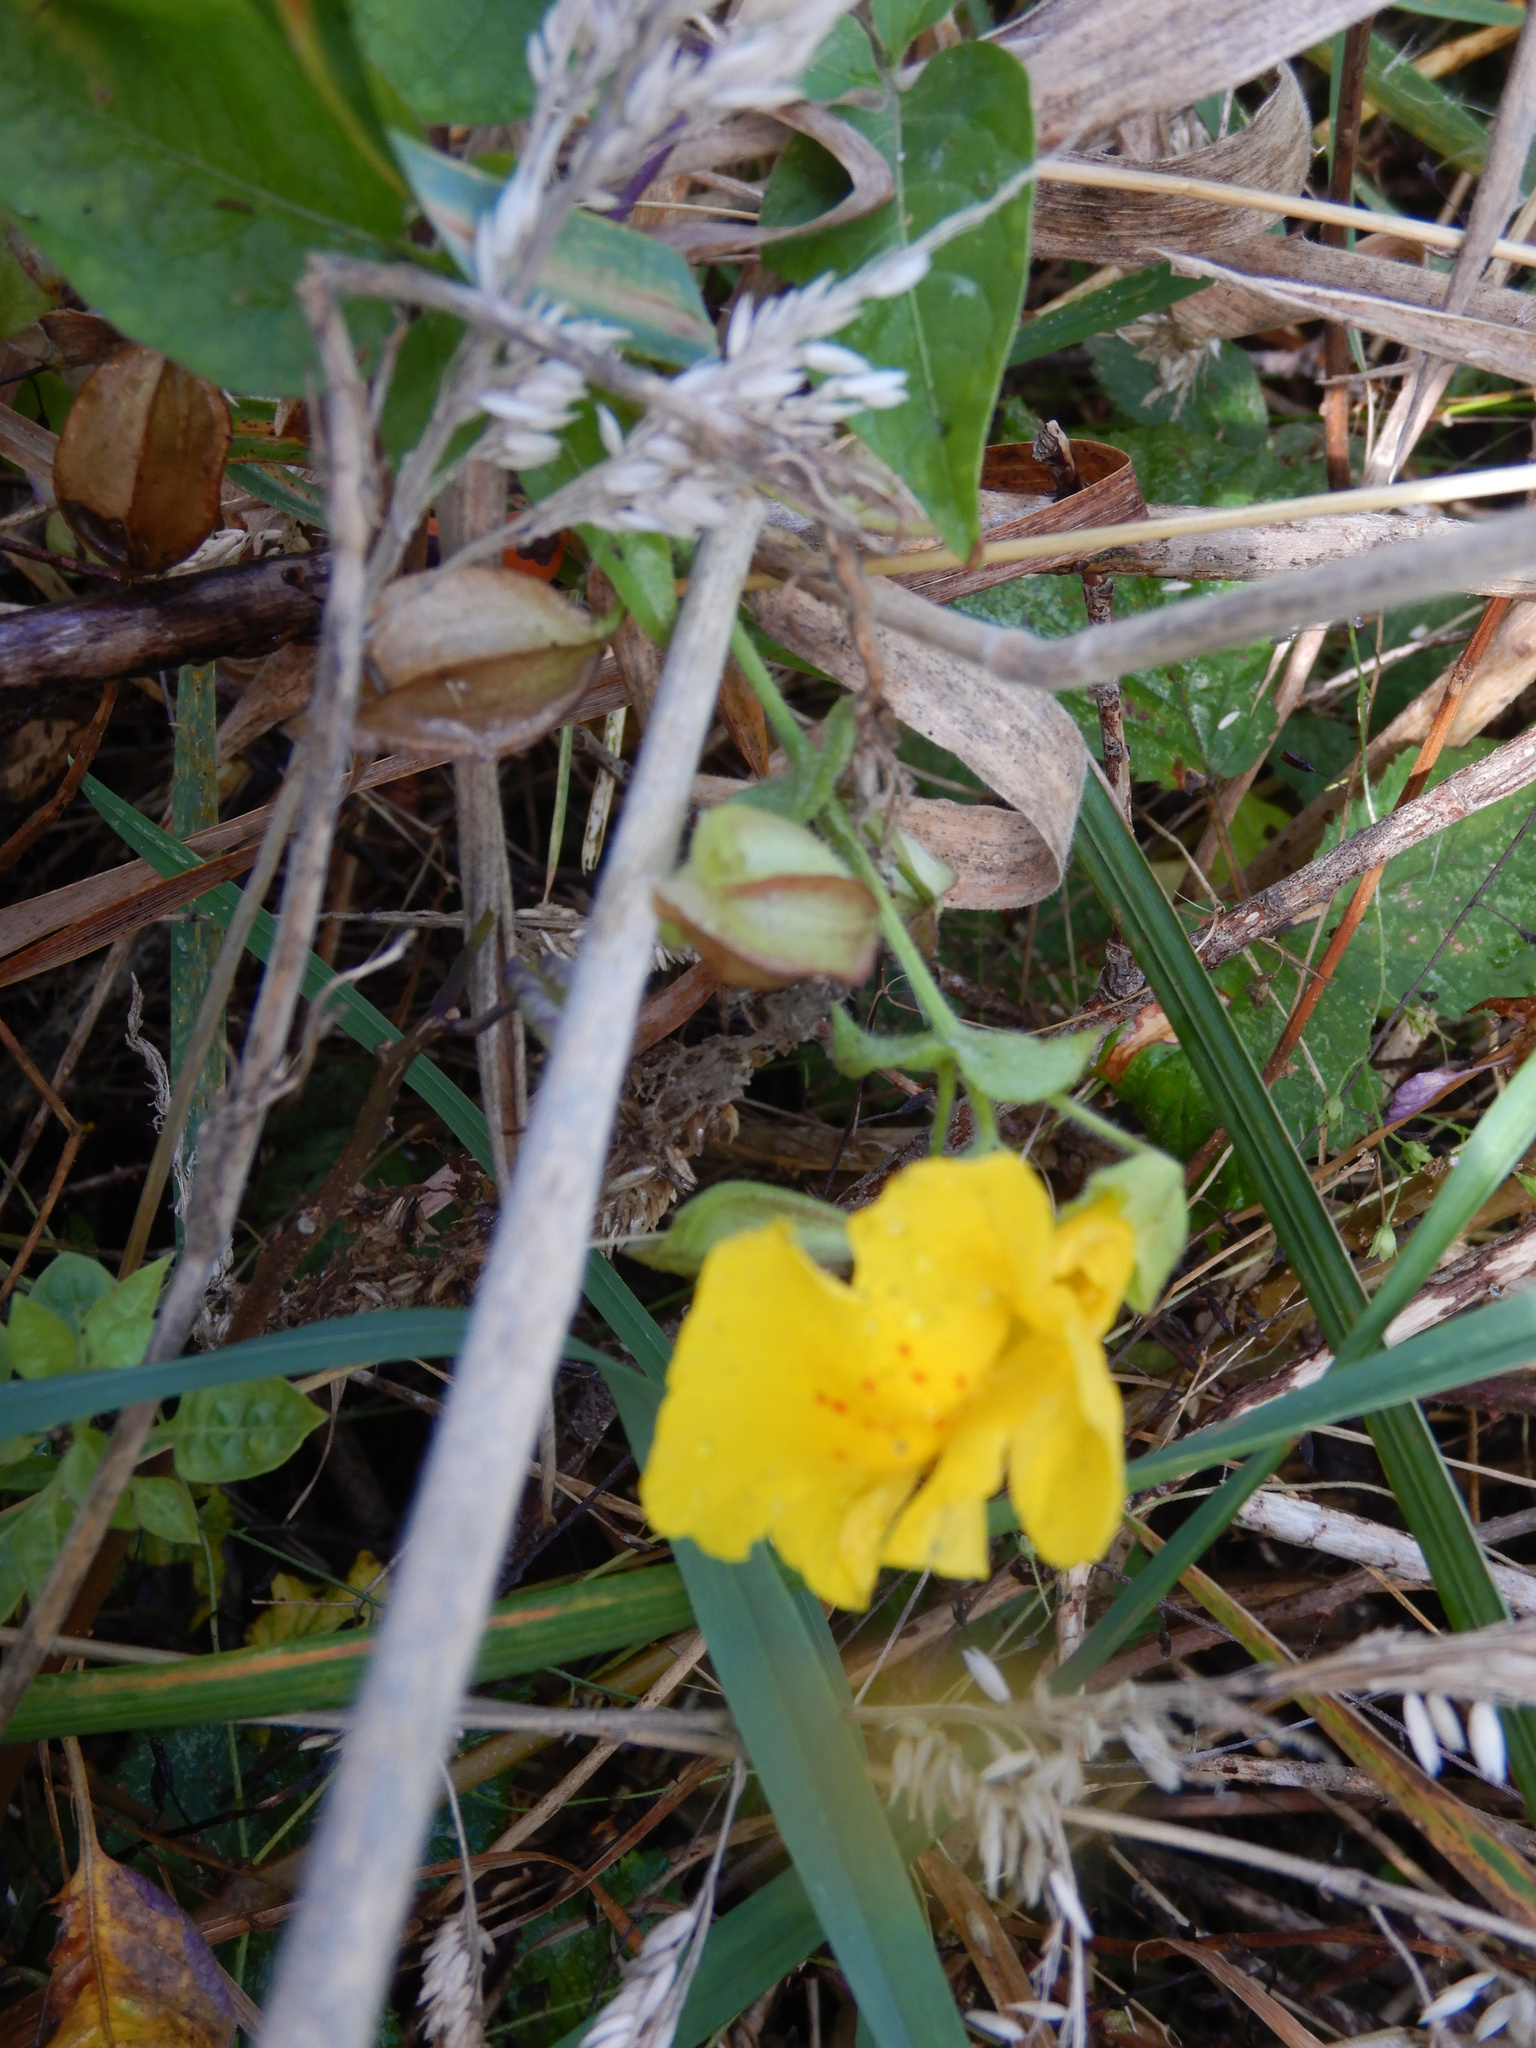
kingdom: Plantae
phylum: Tracheophyta
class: Magnoliopsida
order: Lamiales
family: Phrymaceae
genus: Erythranthe
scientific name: Erythranthe guttata
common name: Monkeyflower
